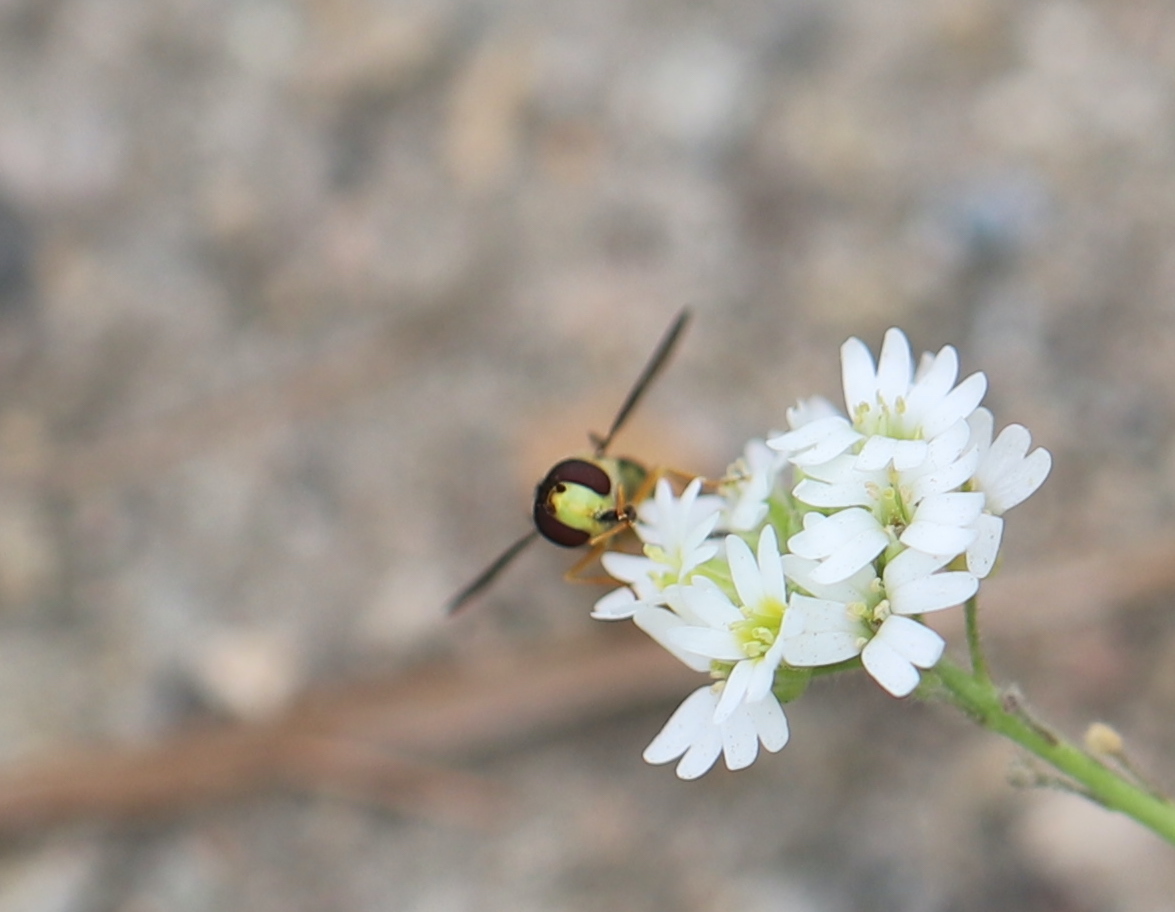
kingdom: Animalia
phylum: Arthropoda
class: Insecta
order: Diptera
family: Syrphidae
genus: Syrphus
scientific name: Syrphus opinator
